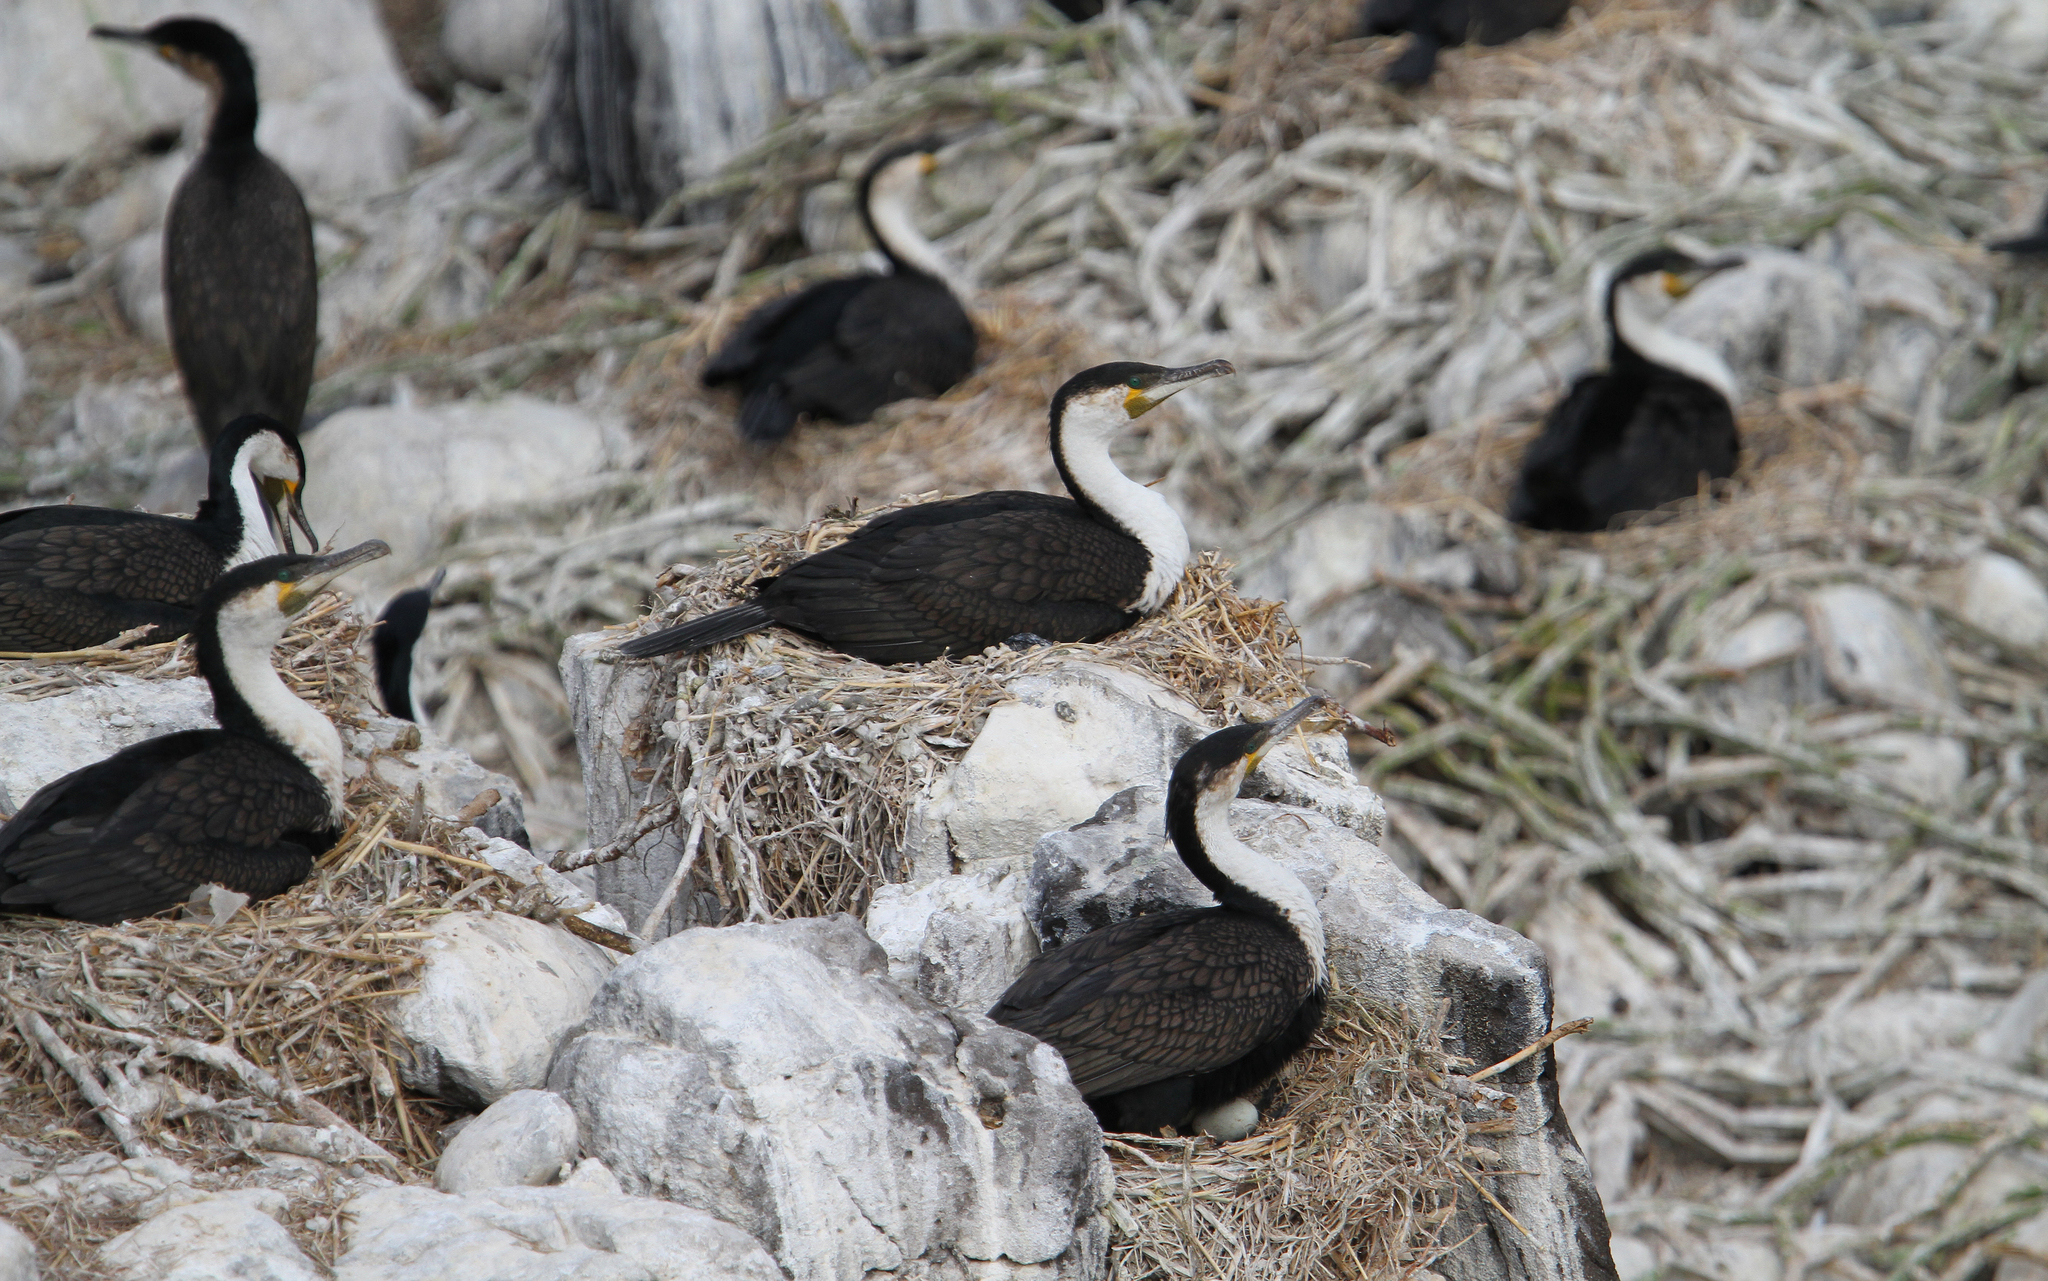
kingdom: Animalia
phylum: Chordata
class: Aves
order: Suliformes
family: Phalacrocoracidae
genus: Phalacrocorax
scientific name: Phalacrocorax carbo
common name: Great cormorant
